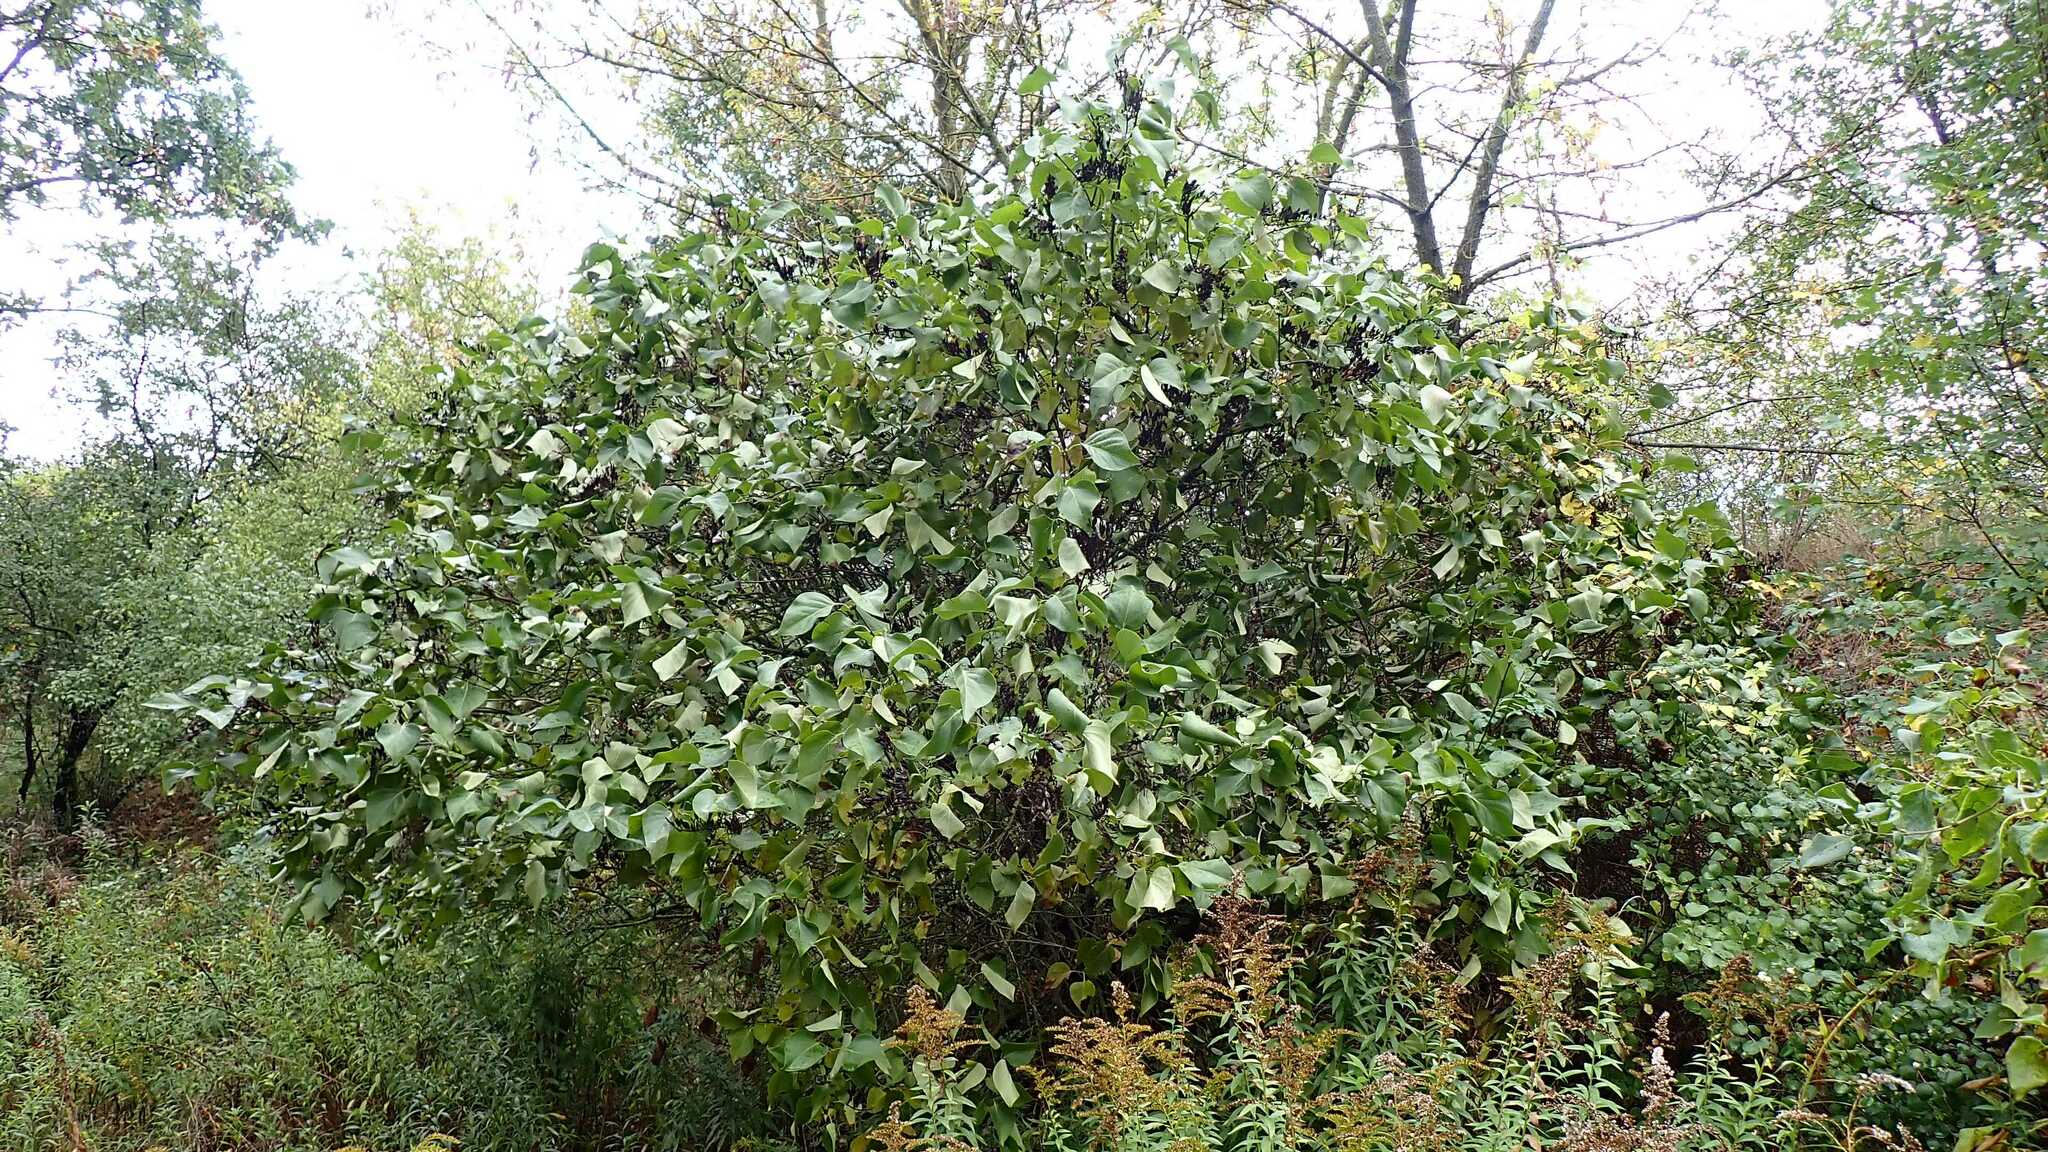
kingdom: Plantae
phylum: Tracheophyta
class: Magnoliopsida
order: Lamiales
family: Oleaceae
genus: Syringa
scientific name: Syringa vulgaris
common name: Common lilac
